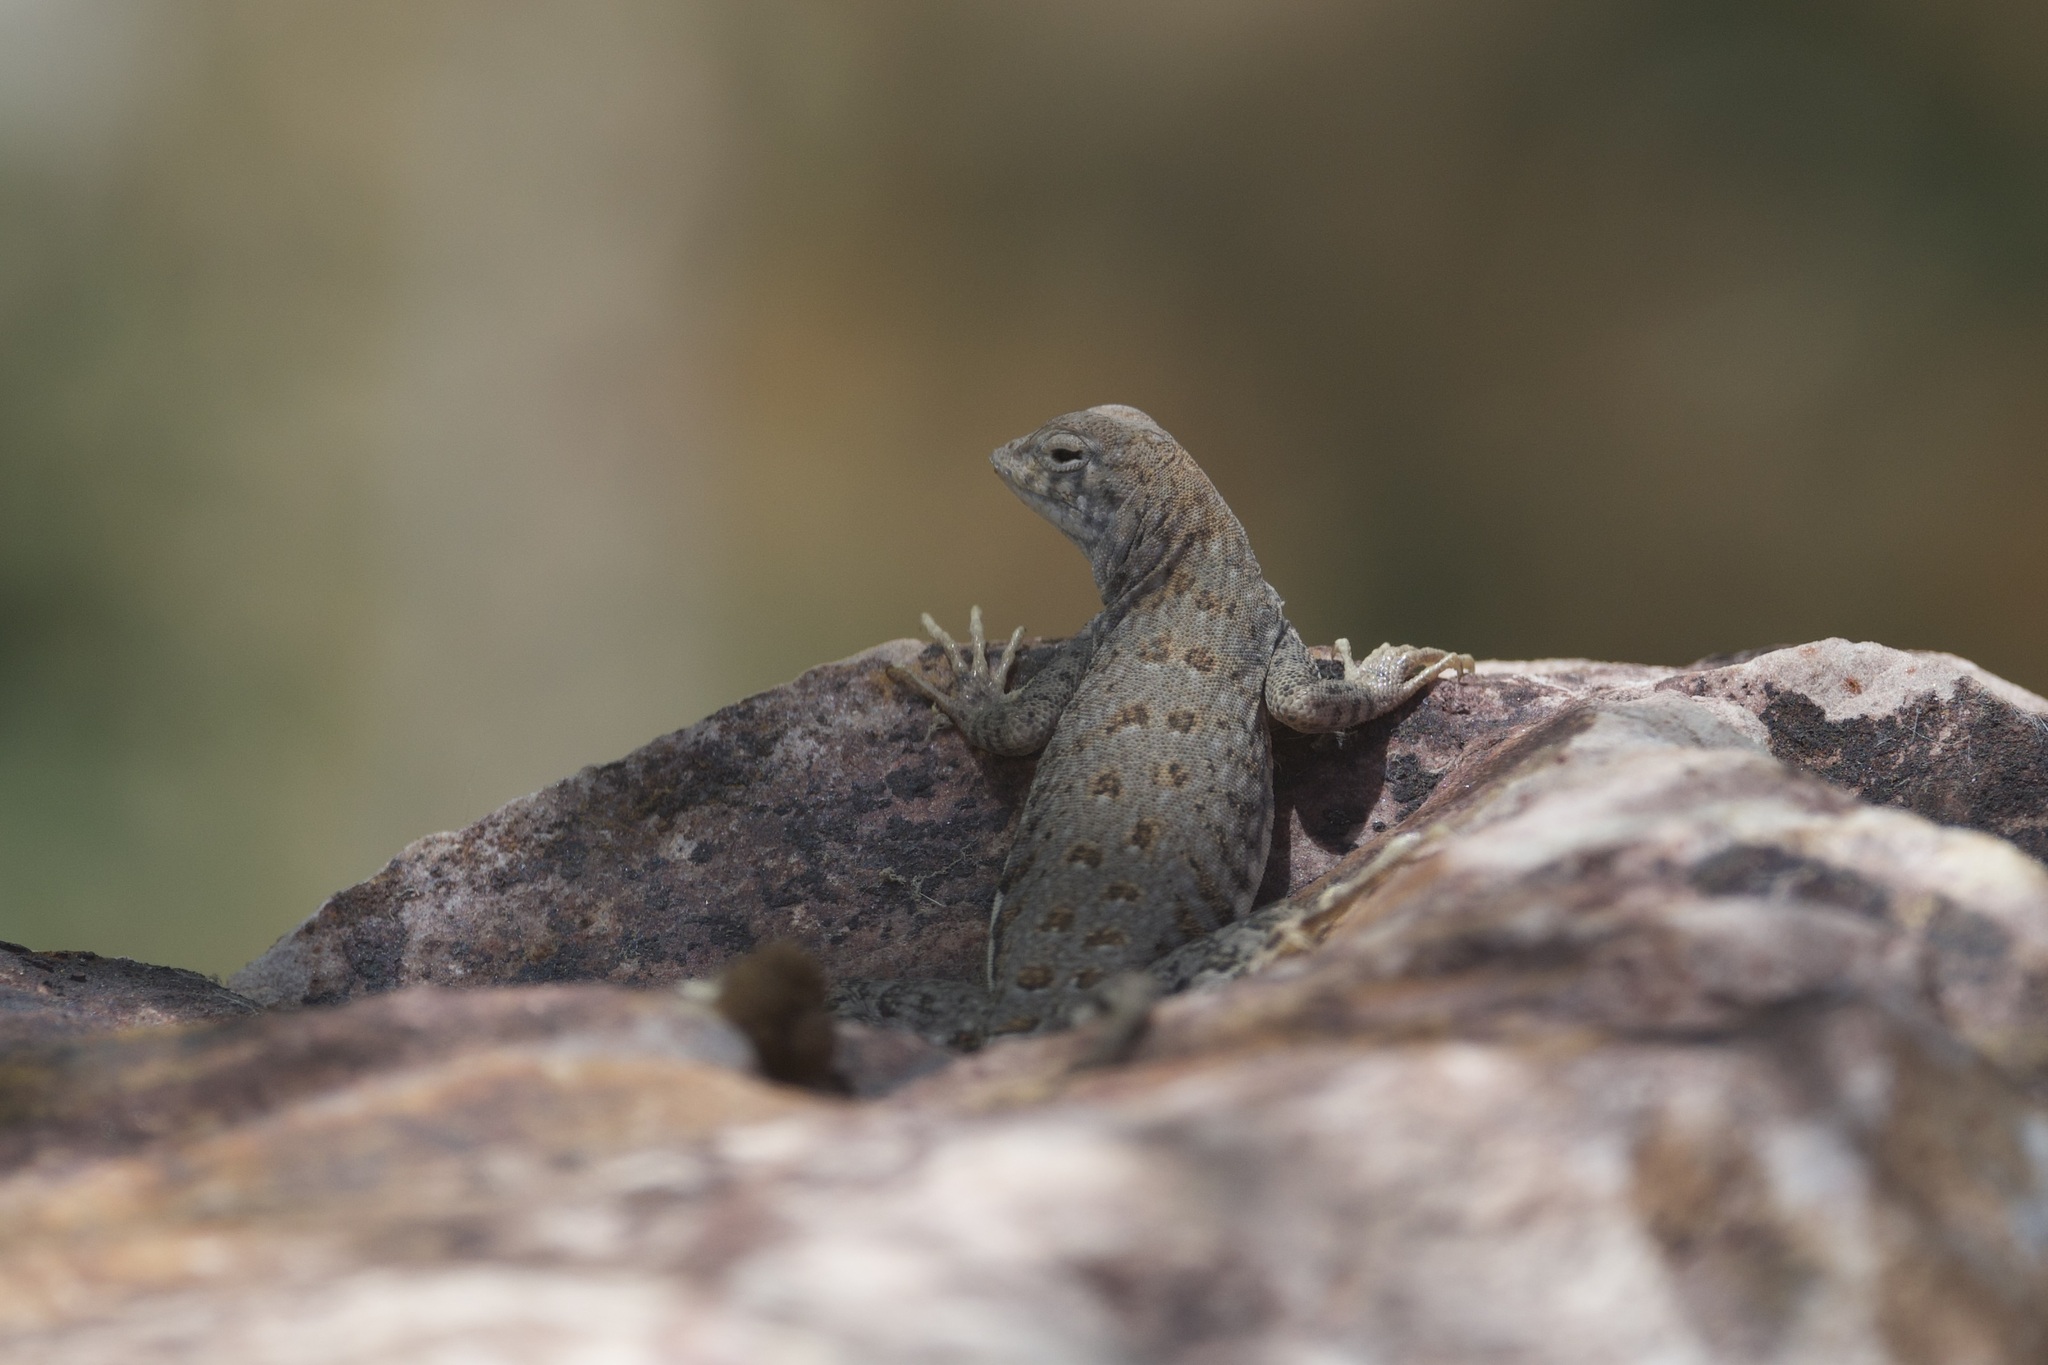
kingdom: Animalia
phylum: Chordata
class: Squamata
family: Phrynosomatidae
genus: Cophosaurus
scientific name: Cophosaurus texanus
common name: Greater earless lizard
